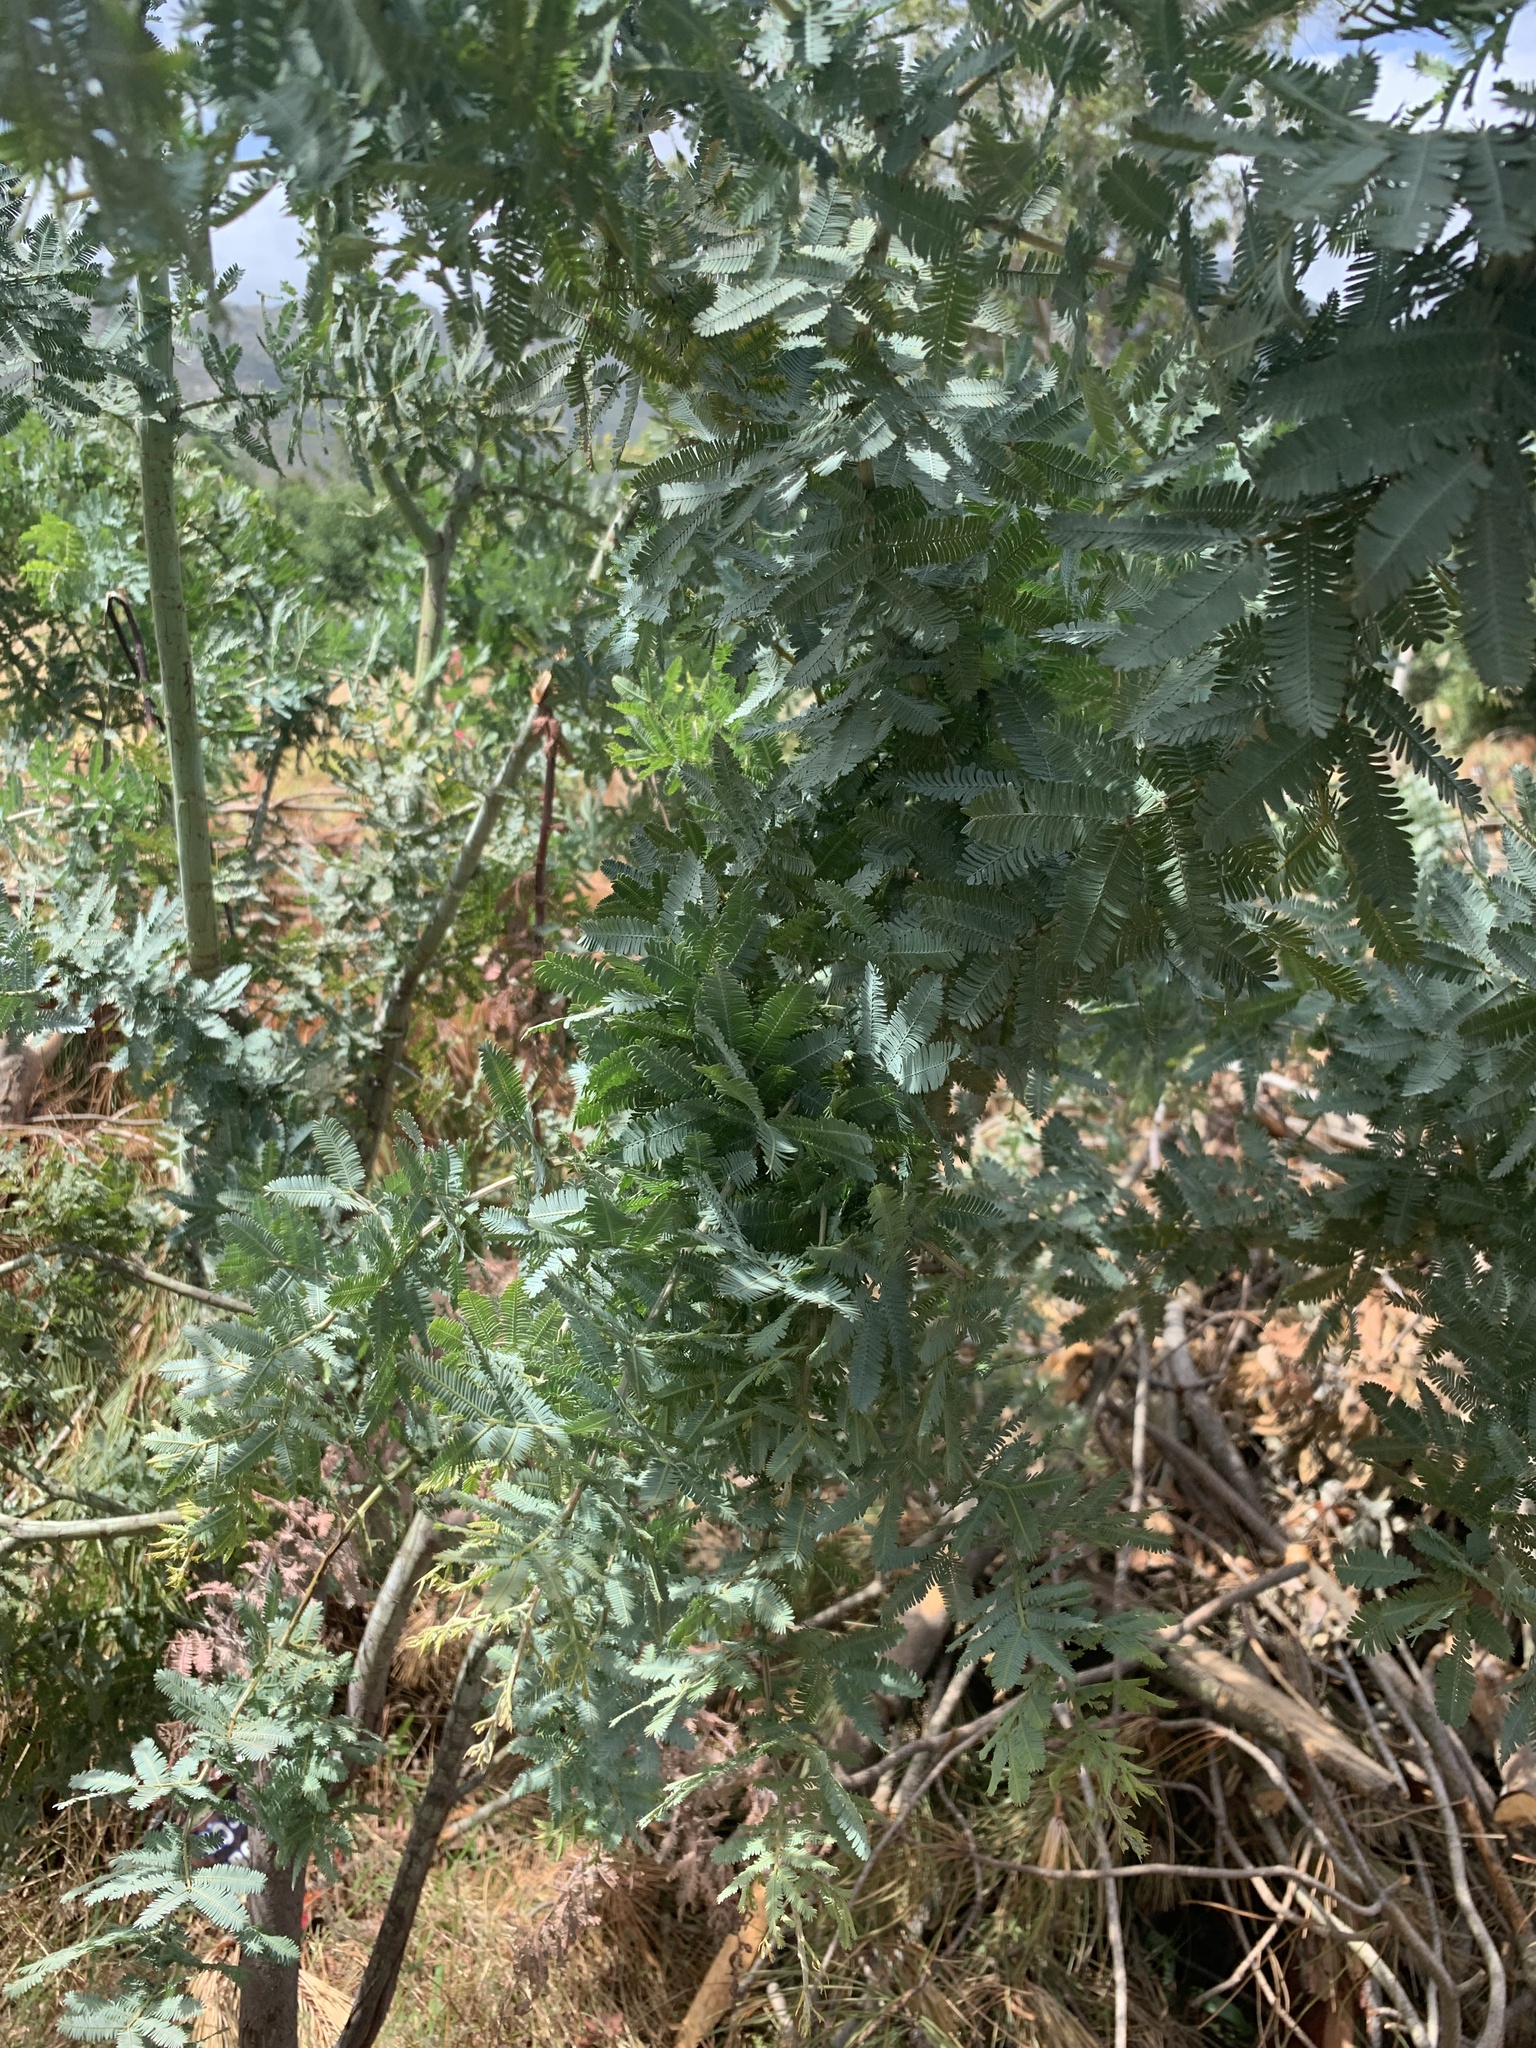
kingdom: Plantae
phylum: Tracheophyta
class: Magnoliopsida
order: Fabales
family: Fabaceae
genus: Acacia
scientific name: Acacia baileyana
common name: Cootamundra wattle
